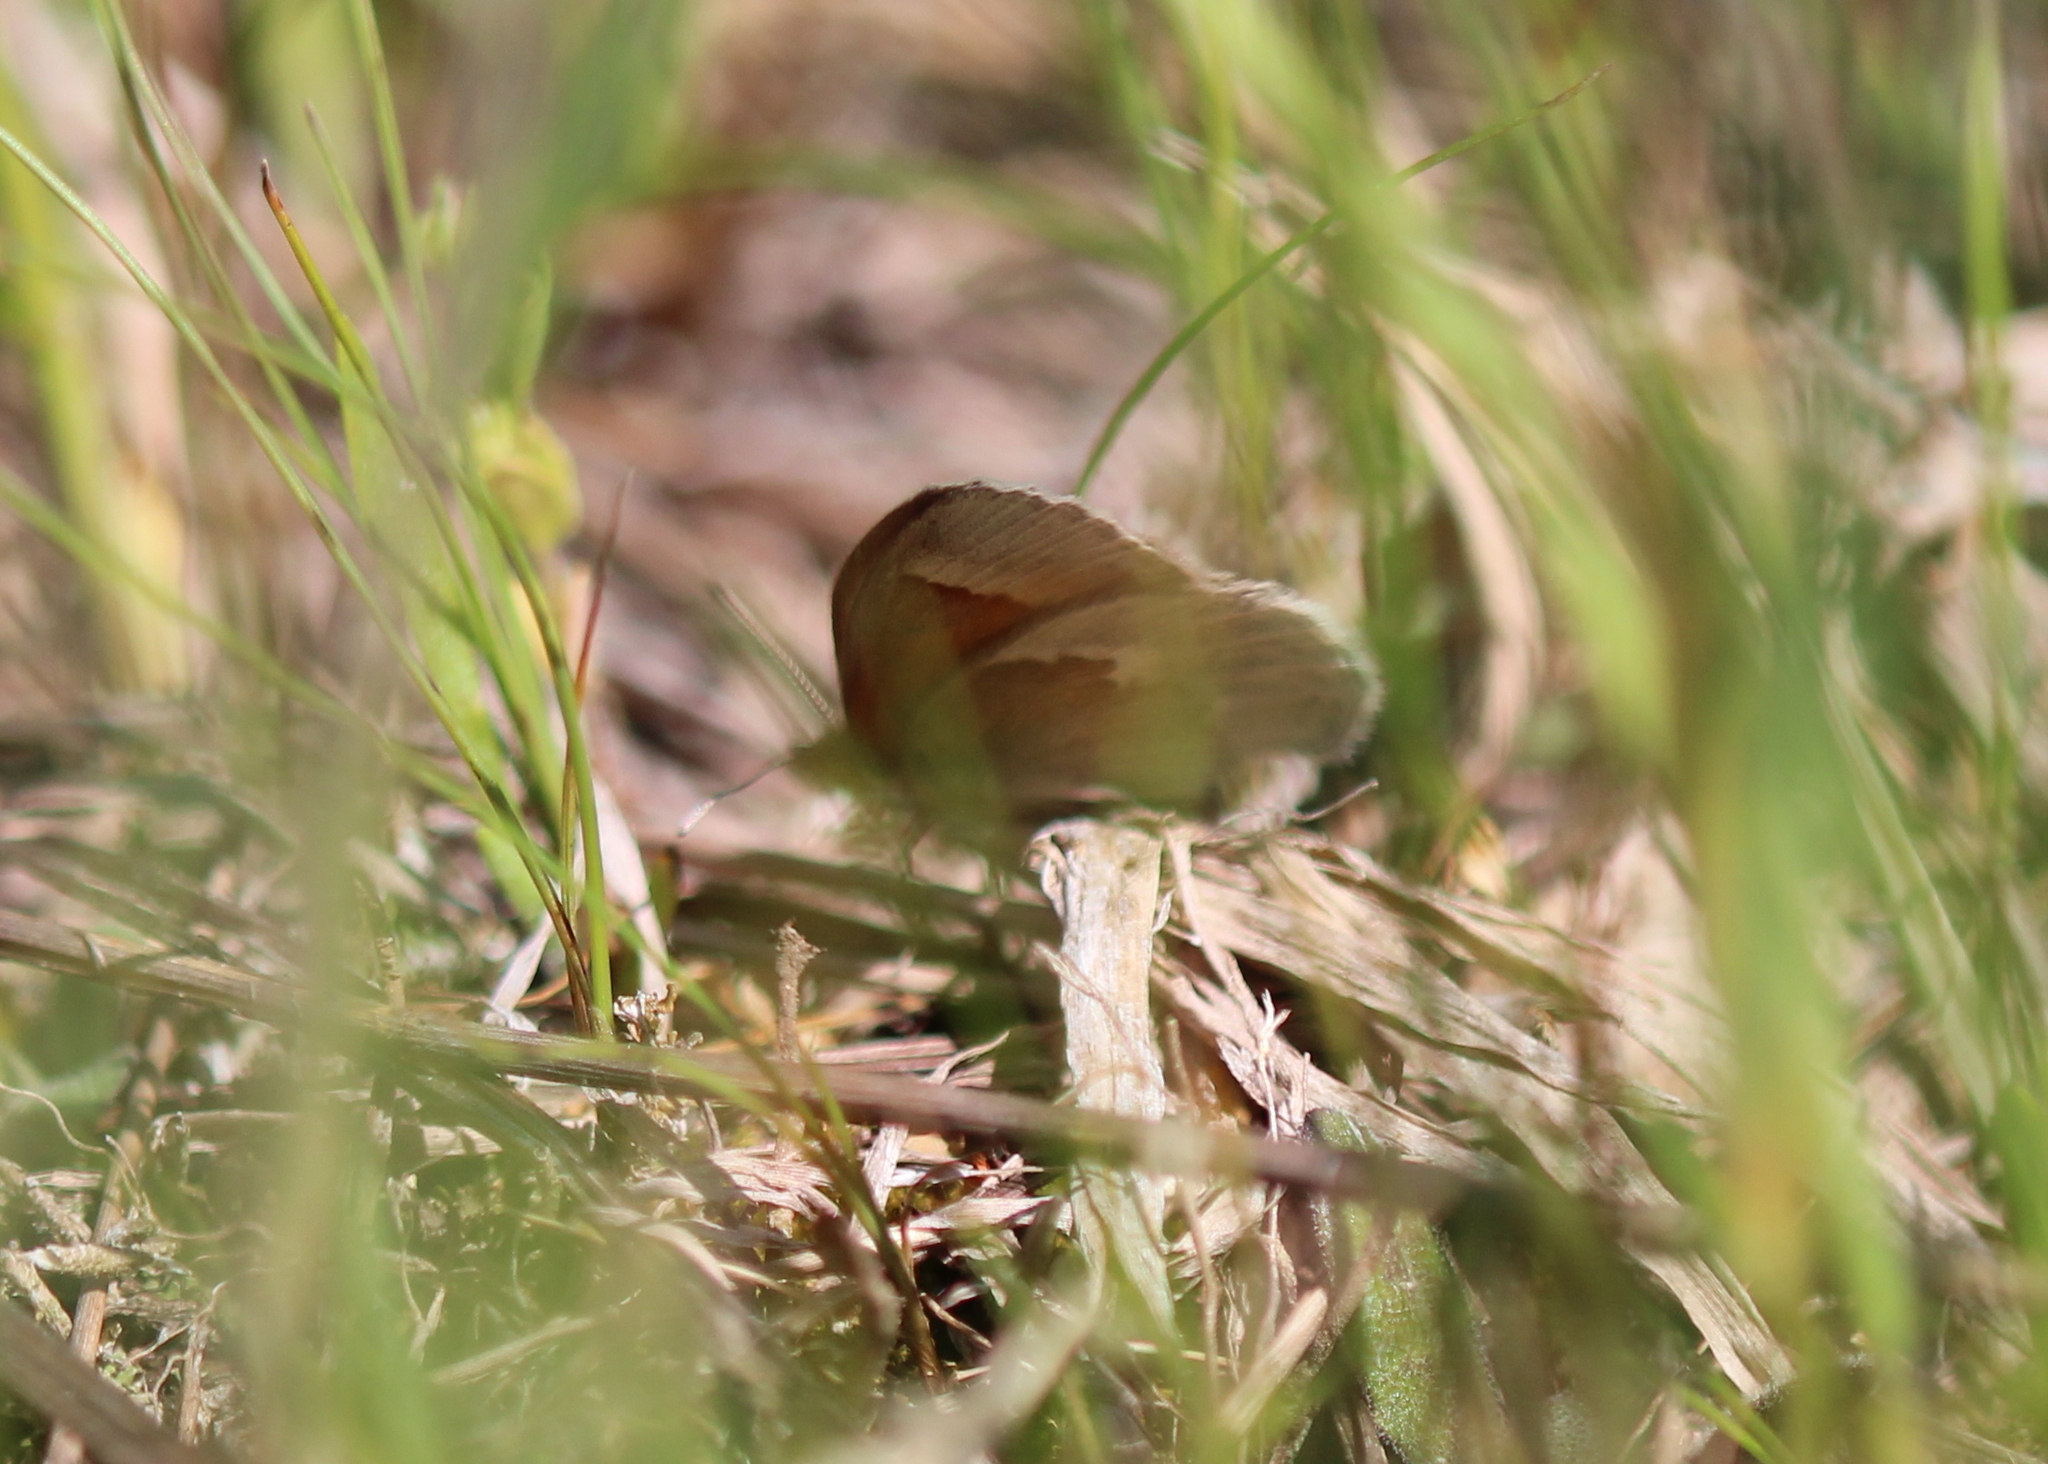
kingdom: Animalia
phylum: Arthropoda
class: Insecta
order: Lepidoptera
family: Nymphalidae
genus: Coenonympha
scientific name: Coenonympha california
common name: Common ringlet
